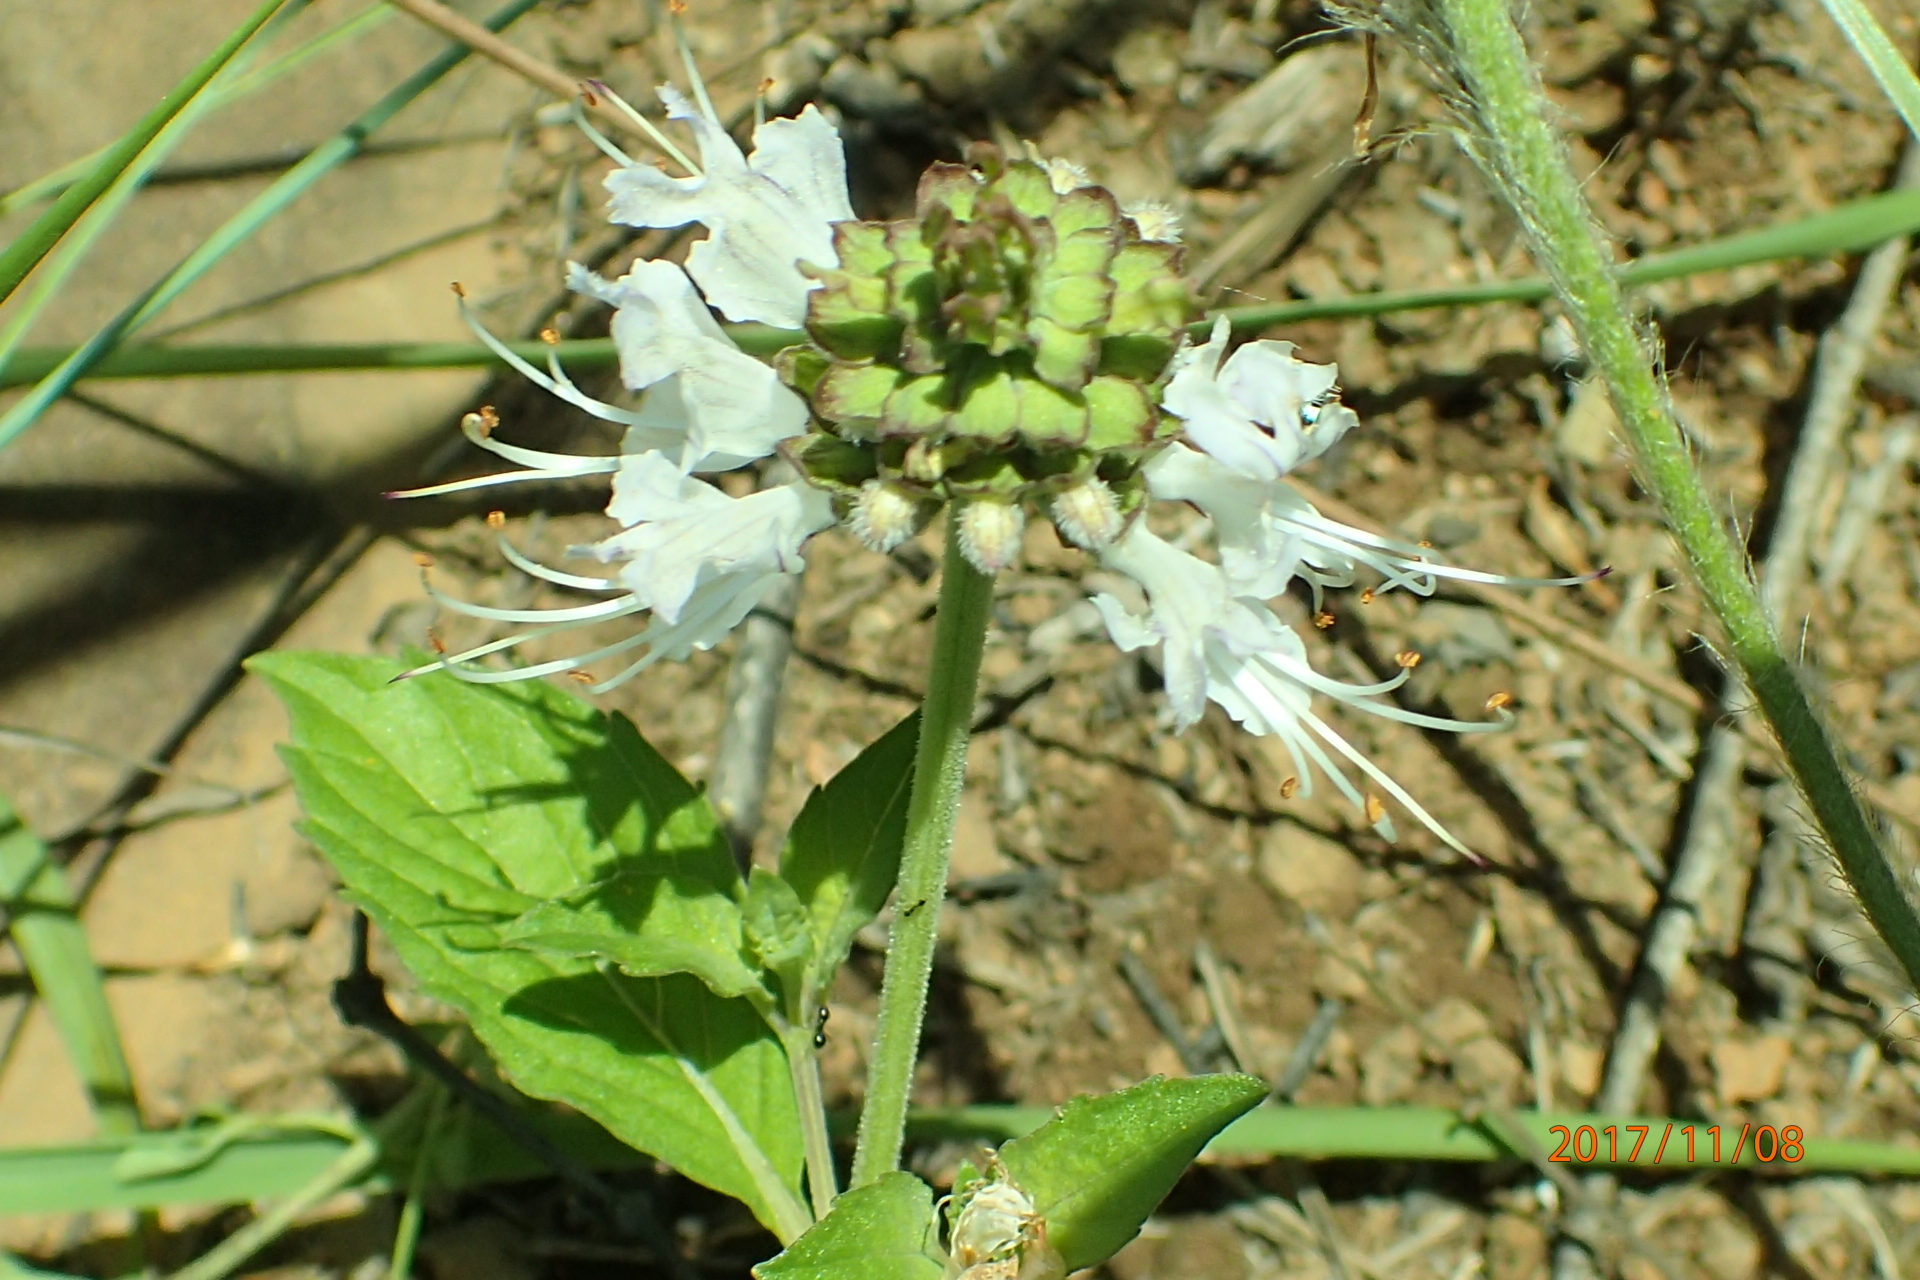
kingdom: Plantae
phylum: Tracheophyta
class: Magnoliopsida
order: Lamiales
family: Lamiaceae
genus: Ocimum
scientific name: Ocimum obovatum
